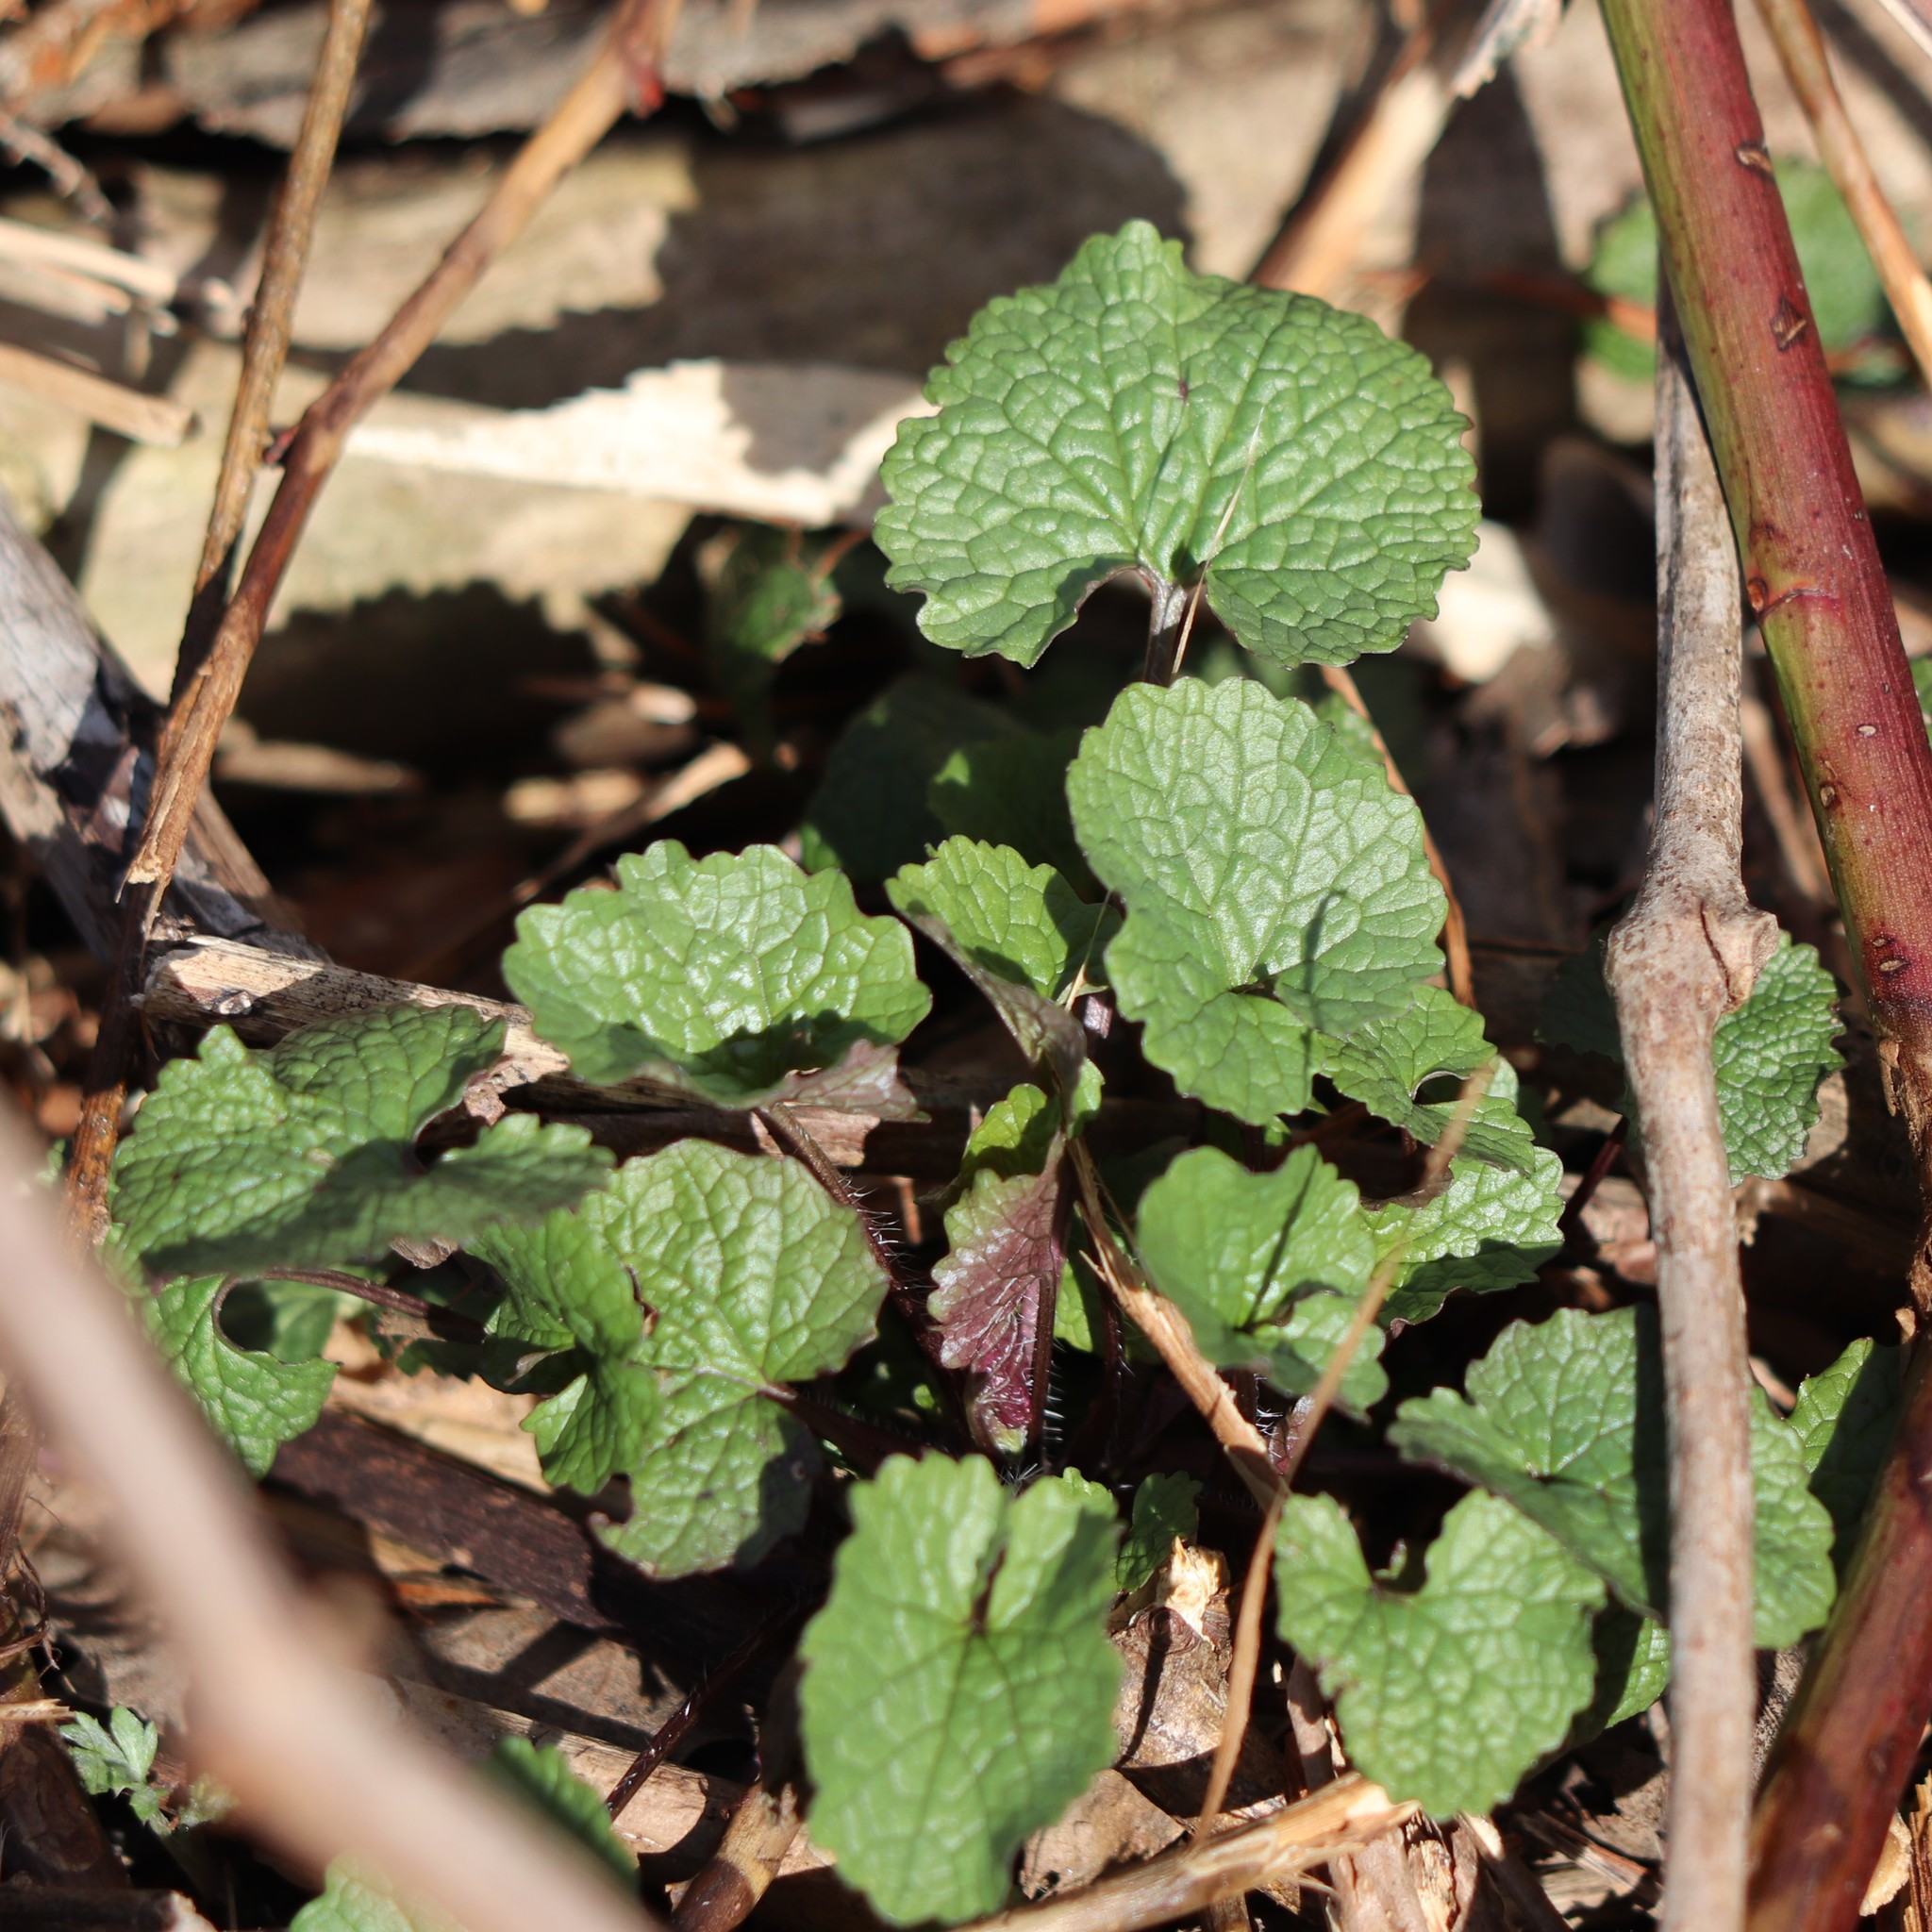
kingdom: Plantae
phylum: Tracheophyta
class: Magnoliopsida
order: Brassicales
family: Brassicaceae
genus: Alliaria
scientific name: Alliaria petiolata
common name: Garlic mustard
